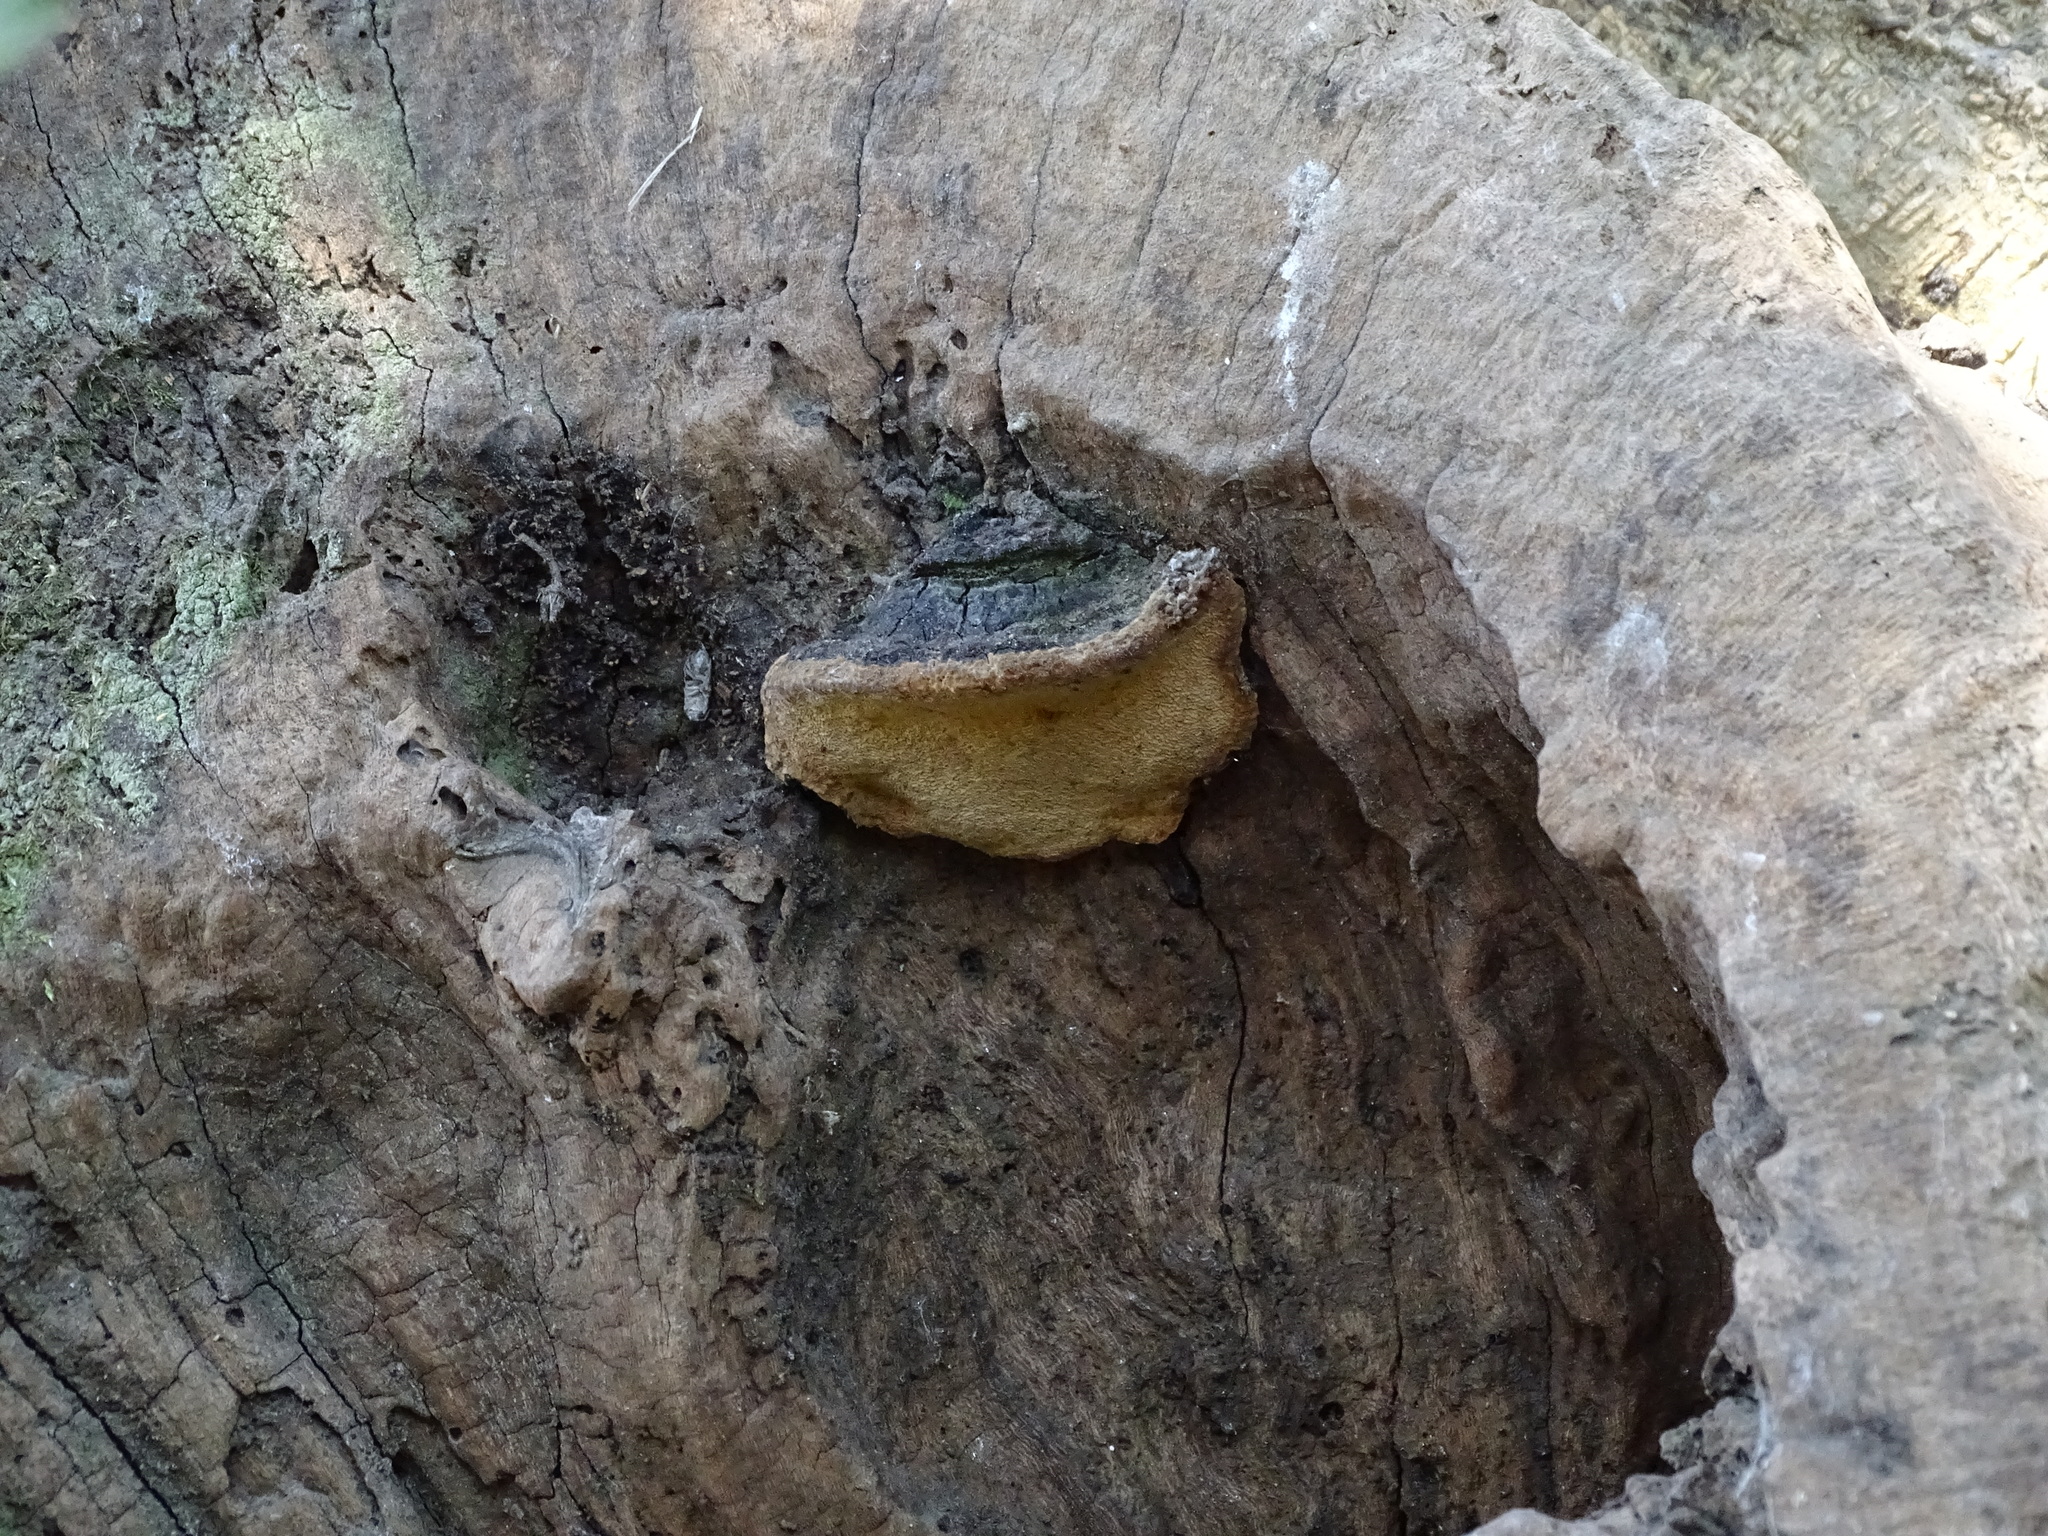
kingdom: Fungi
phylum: Basidiomycota
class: Agaricomycetes
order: Hymenochaetales
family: Hymenochaetaceae
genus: Phylloporia
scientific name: Phylloporia boldo
